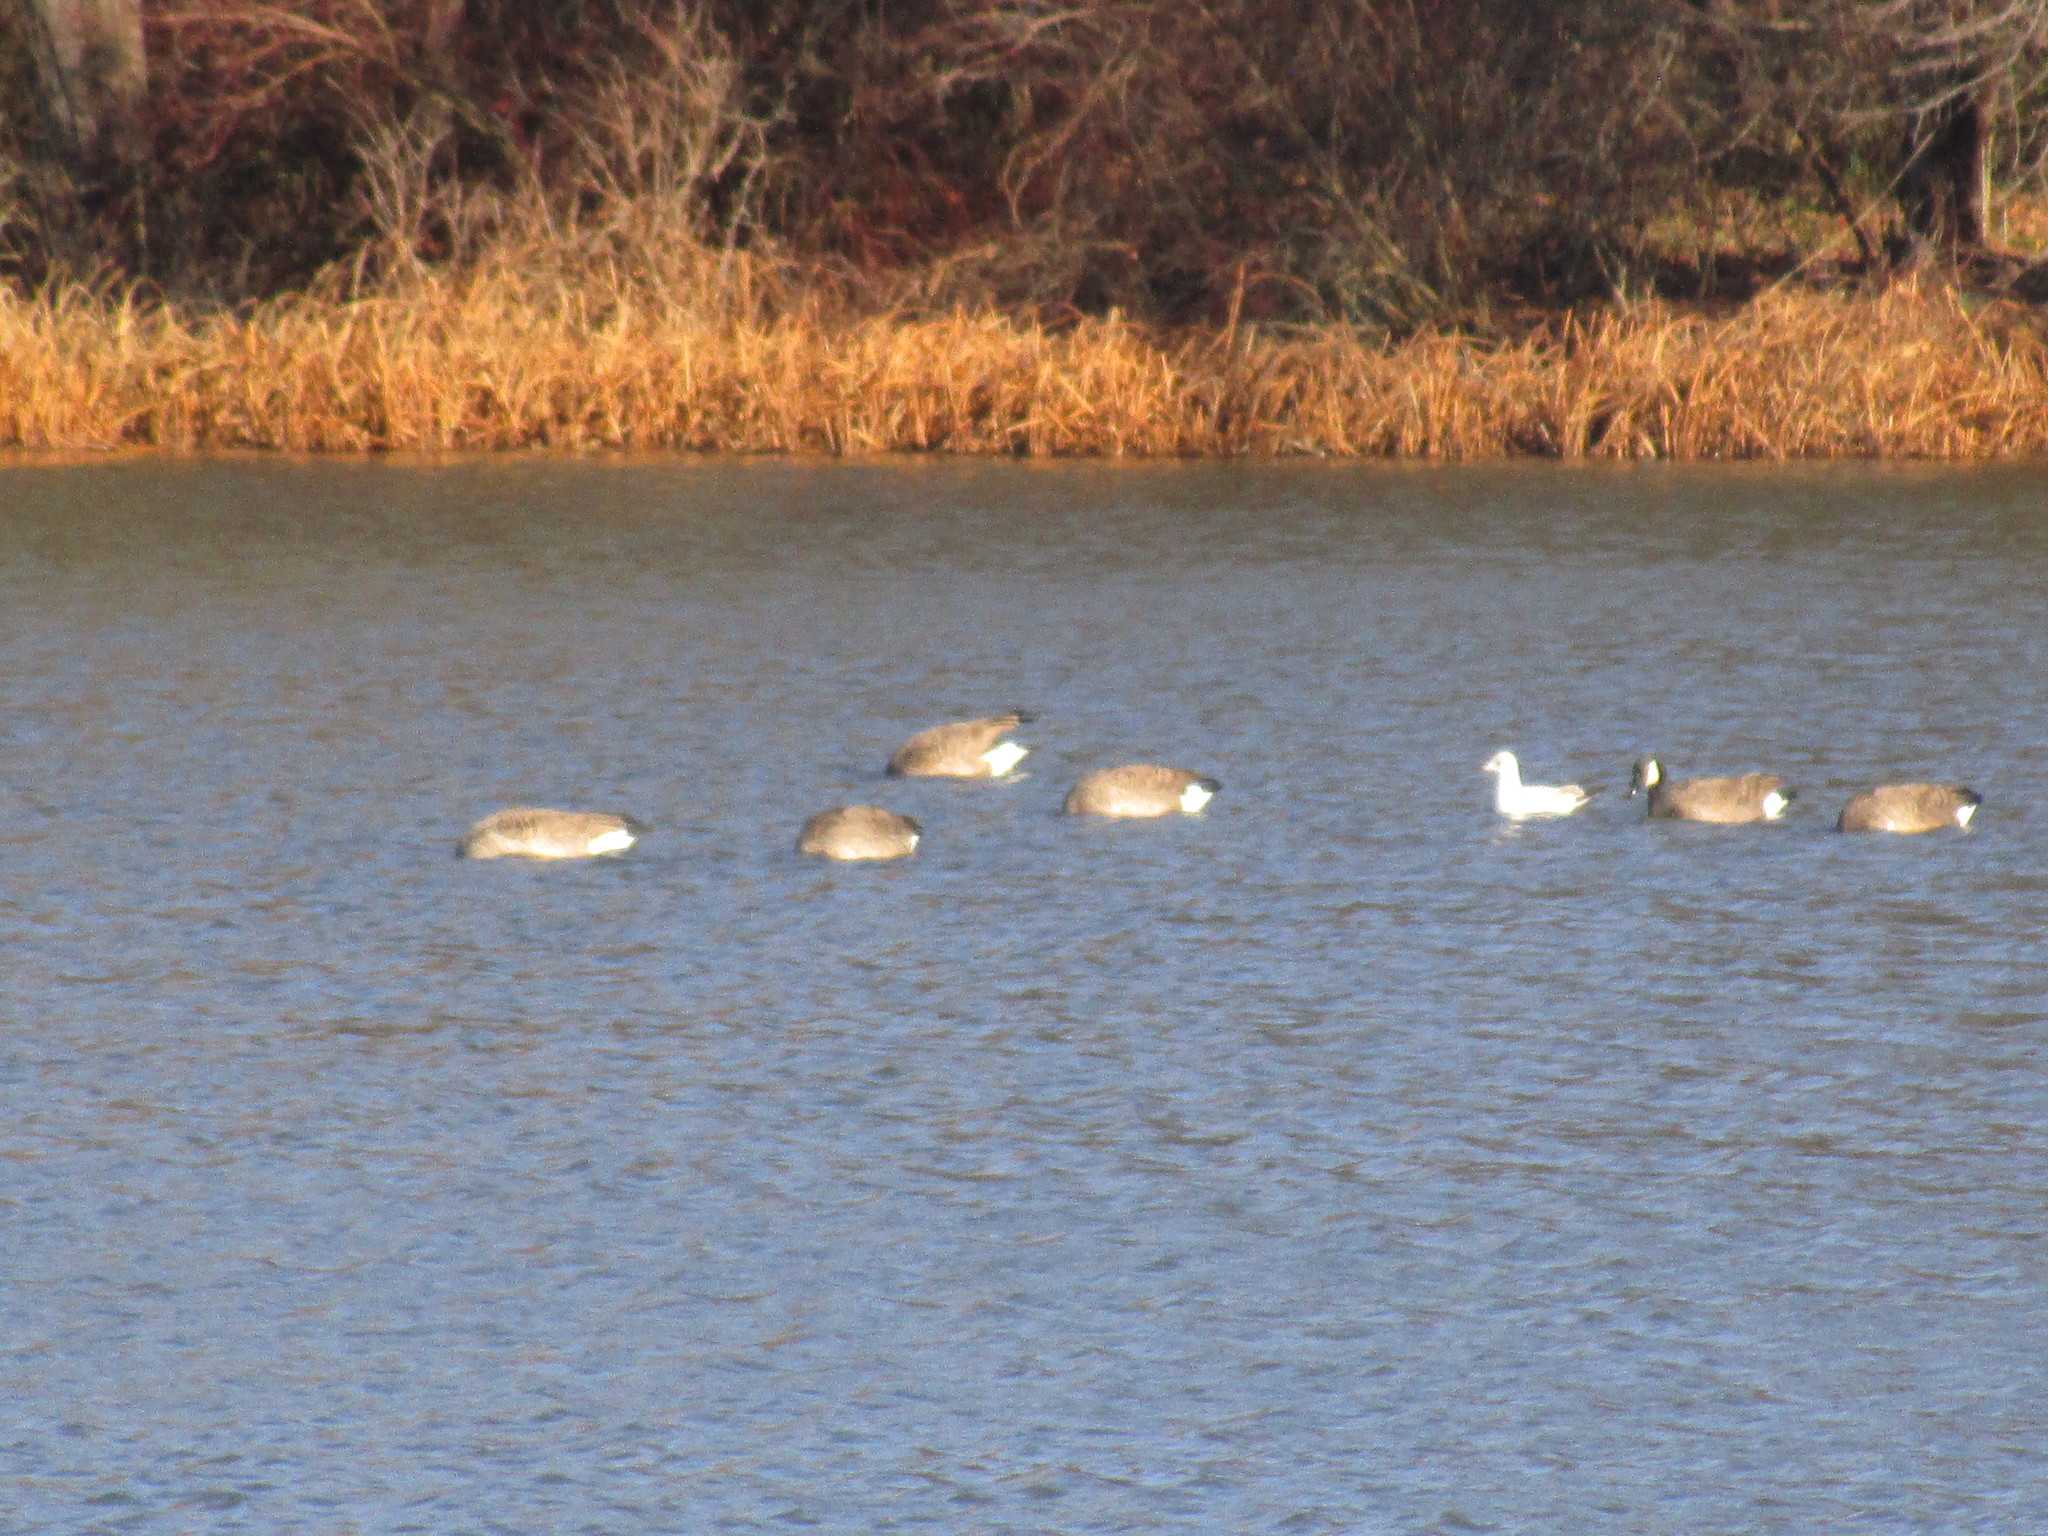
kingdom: Animalia
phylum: Chordata
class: Aves
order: Anseriformes
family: Anatidae
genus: Branta
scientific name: Branta canadensis
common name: Canada goose
